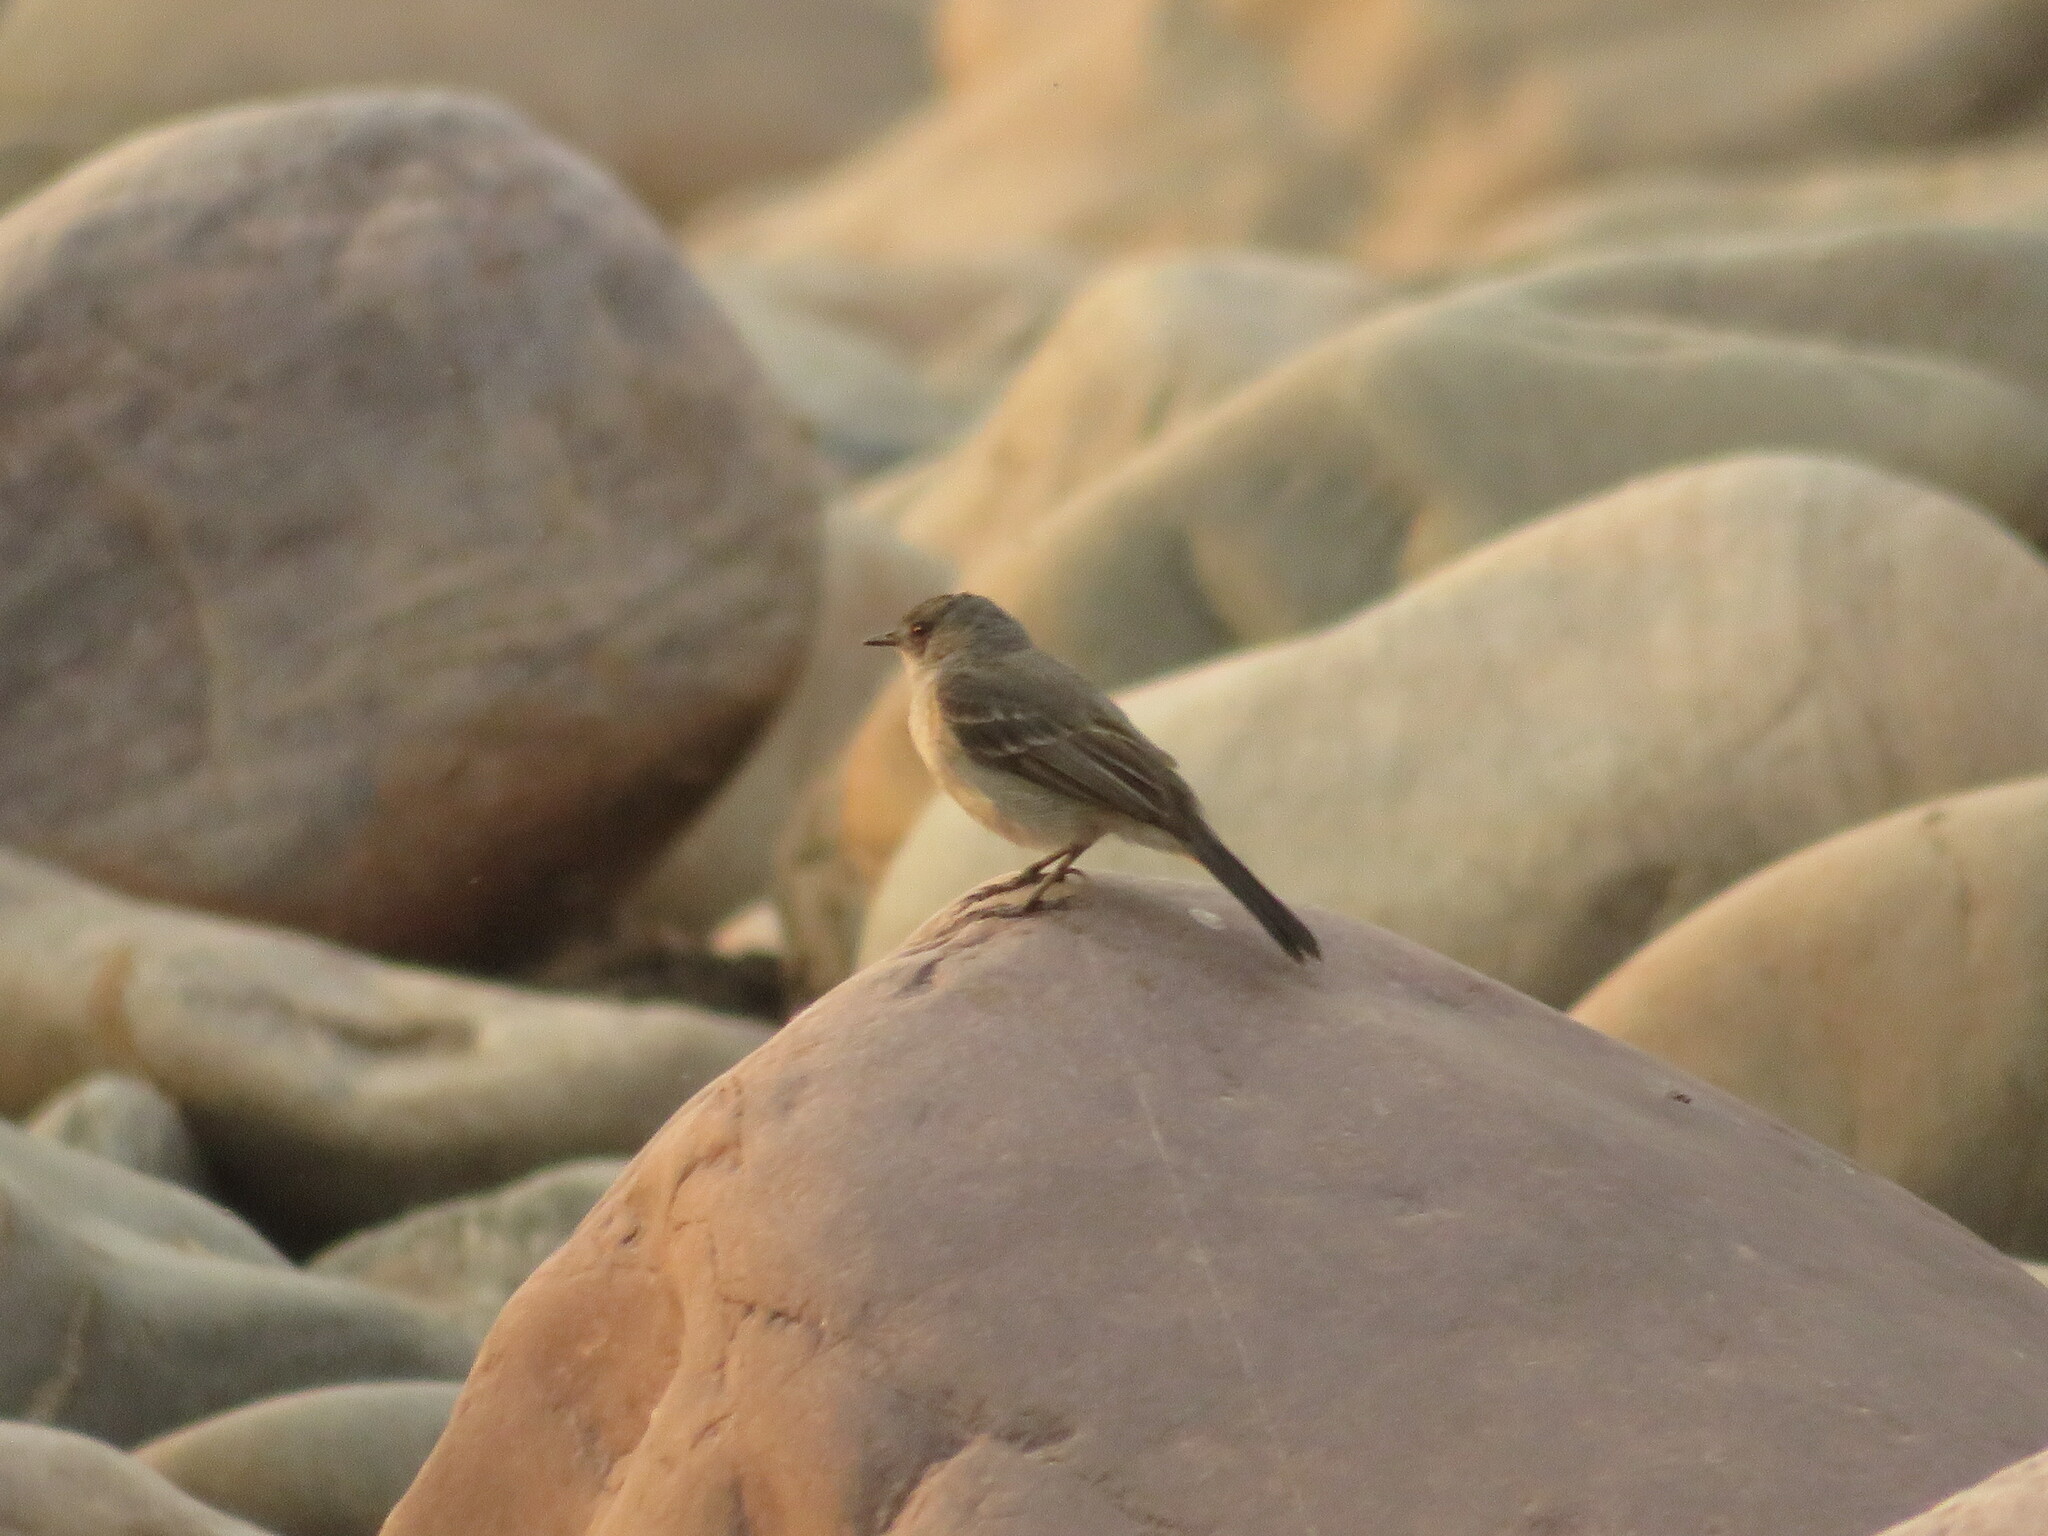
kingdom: Animalia
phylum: Chordata
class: Aves
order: Passeriformes
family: Tyrannidae
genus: Serpophaga
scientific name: Serpophaga nigricans
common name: Sooty tyrannulet
